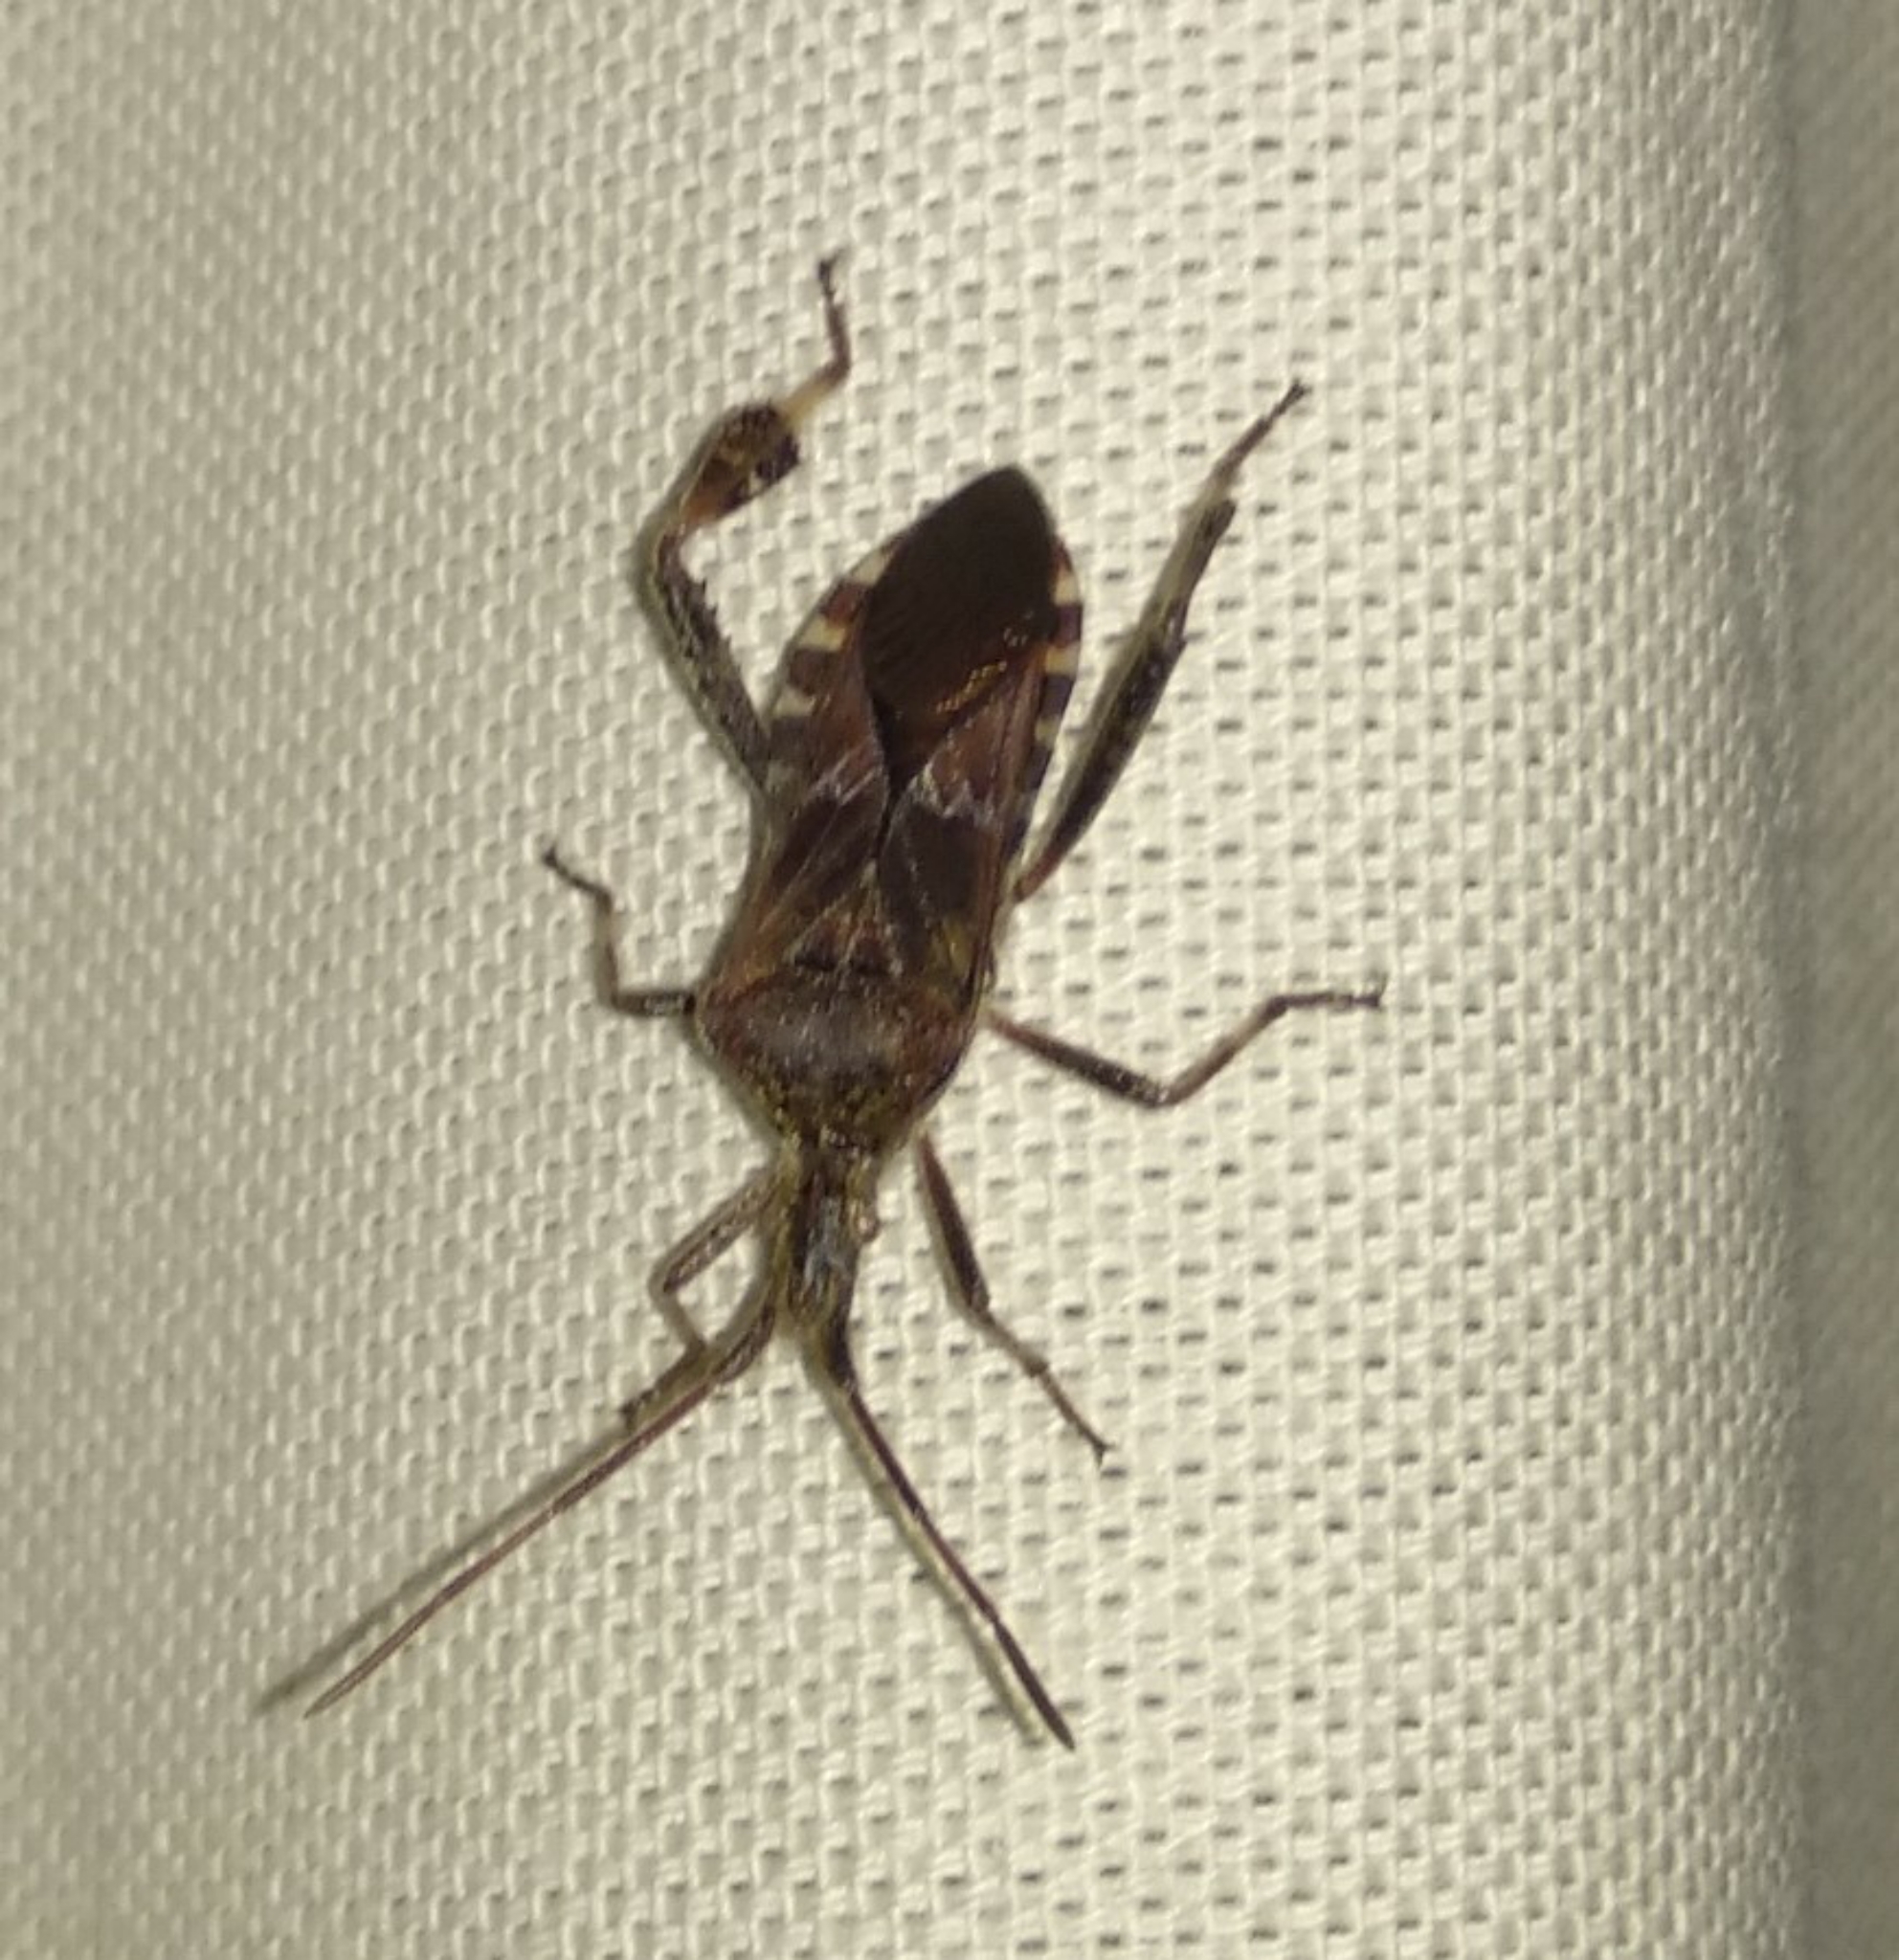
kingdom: Animalia
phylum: Arthropoda
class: Insecta
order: Hemiptera
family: Coreidae
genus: Leptoglossus
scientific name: Leptoglossus occidentalis
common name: Western conifer-seed bug
